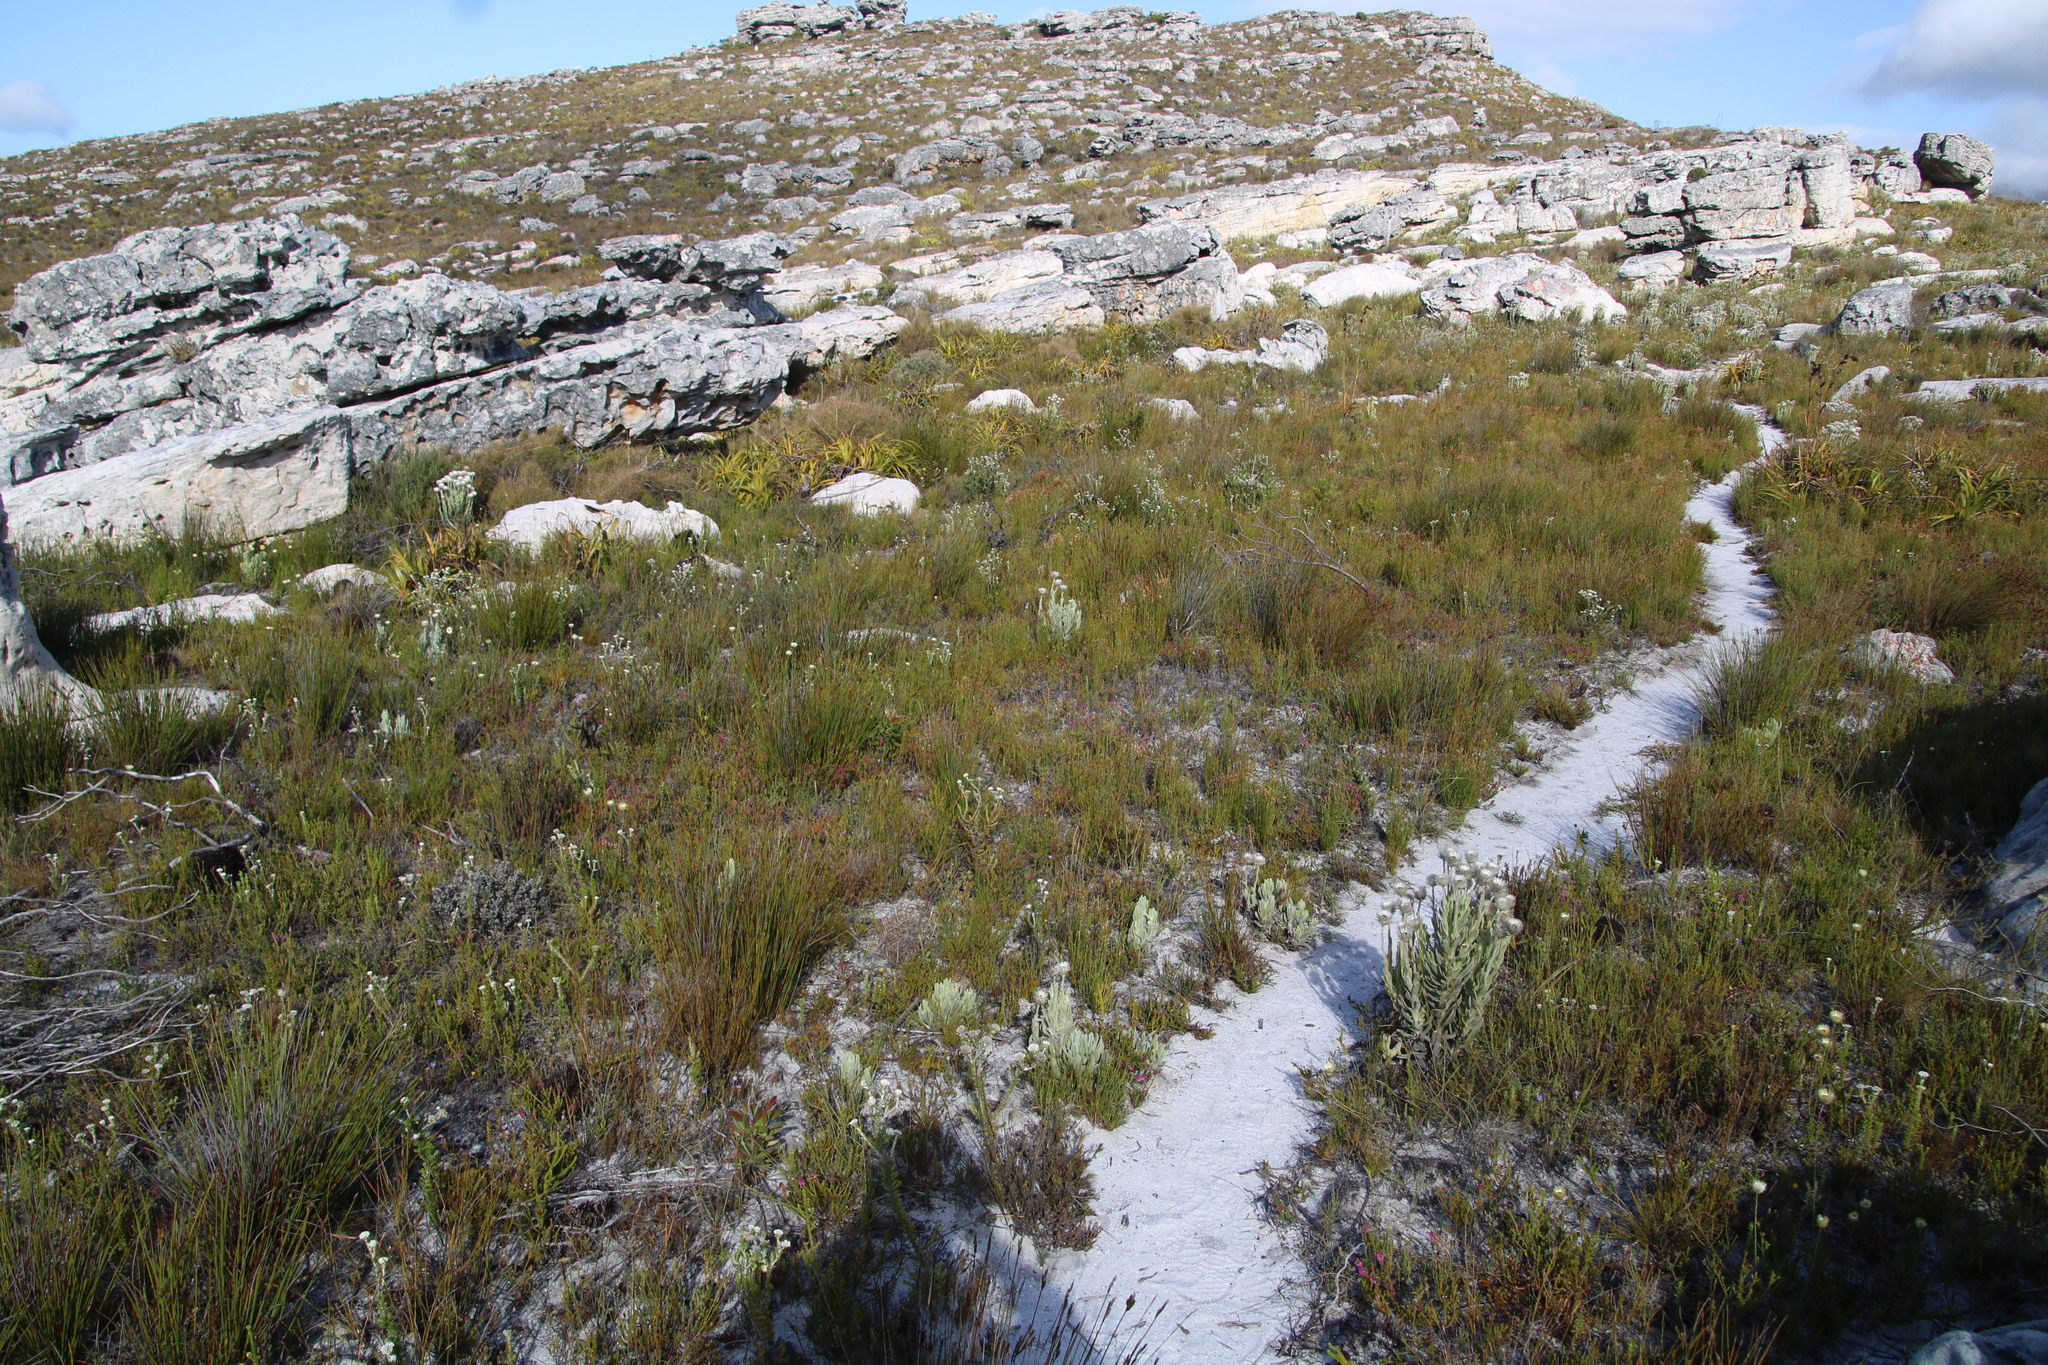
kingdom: Plantae
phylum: Tracheophyta
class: Magnoliopsida
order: Ericales
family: Ericaceae
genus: Erica
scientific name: Erica pulchella
